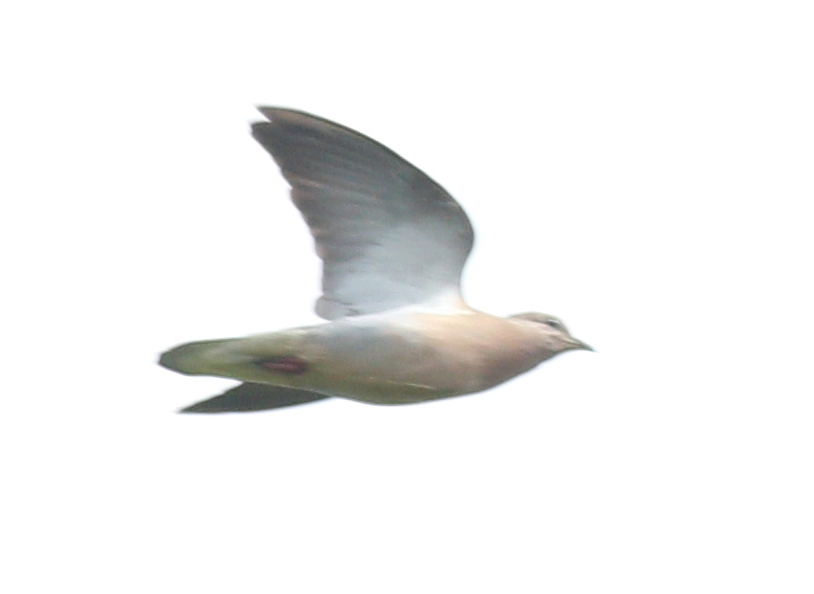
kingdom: Animalia
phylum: Chordata
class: Aves
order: Columbiformes
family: Columbidae
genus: Zenaida
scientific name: Zenaida auriculata
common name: Eared dove
